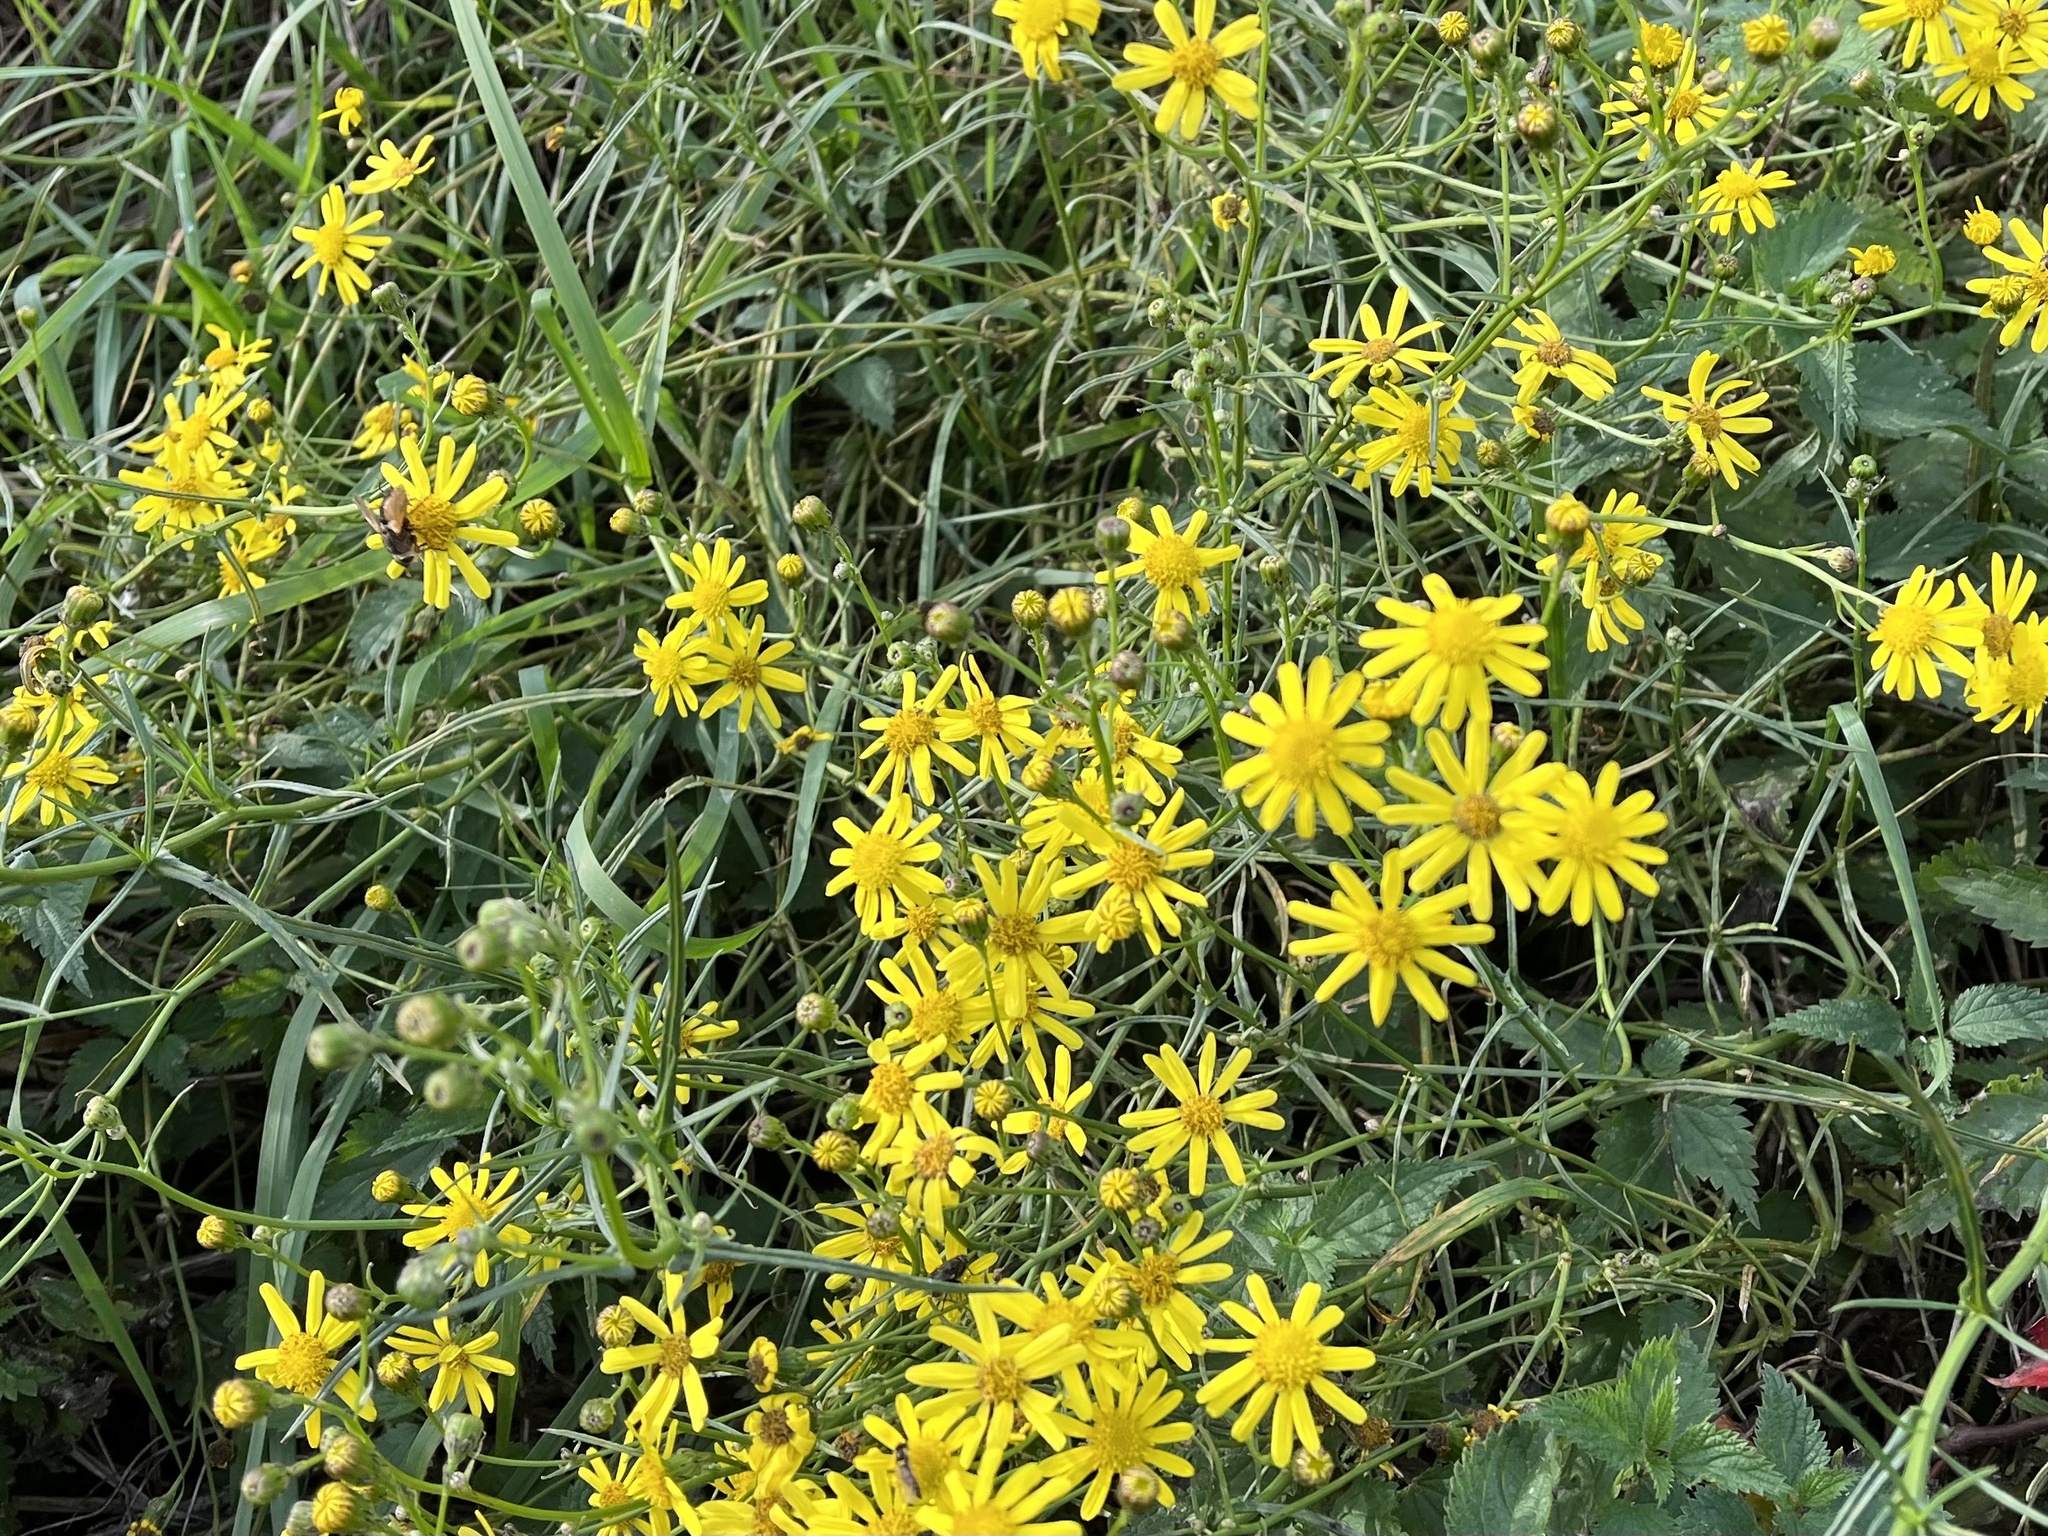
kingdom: Plantae
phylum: Tracheophyta
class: Magnoliopsida
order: Asterales
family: Asteraceae
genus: Senecio
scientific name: Senecio inaequidens
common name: Narrow-leaved ragwort
